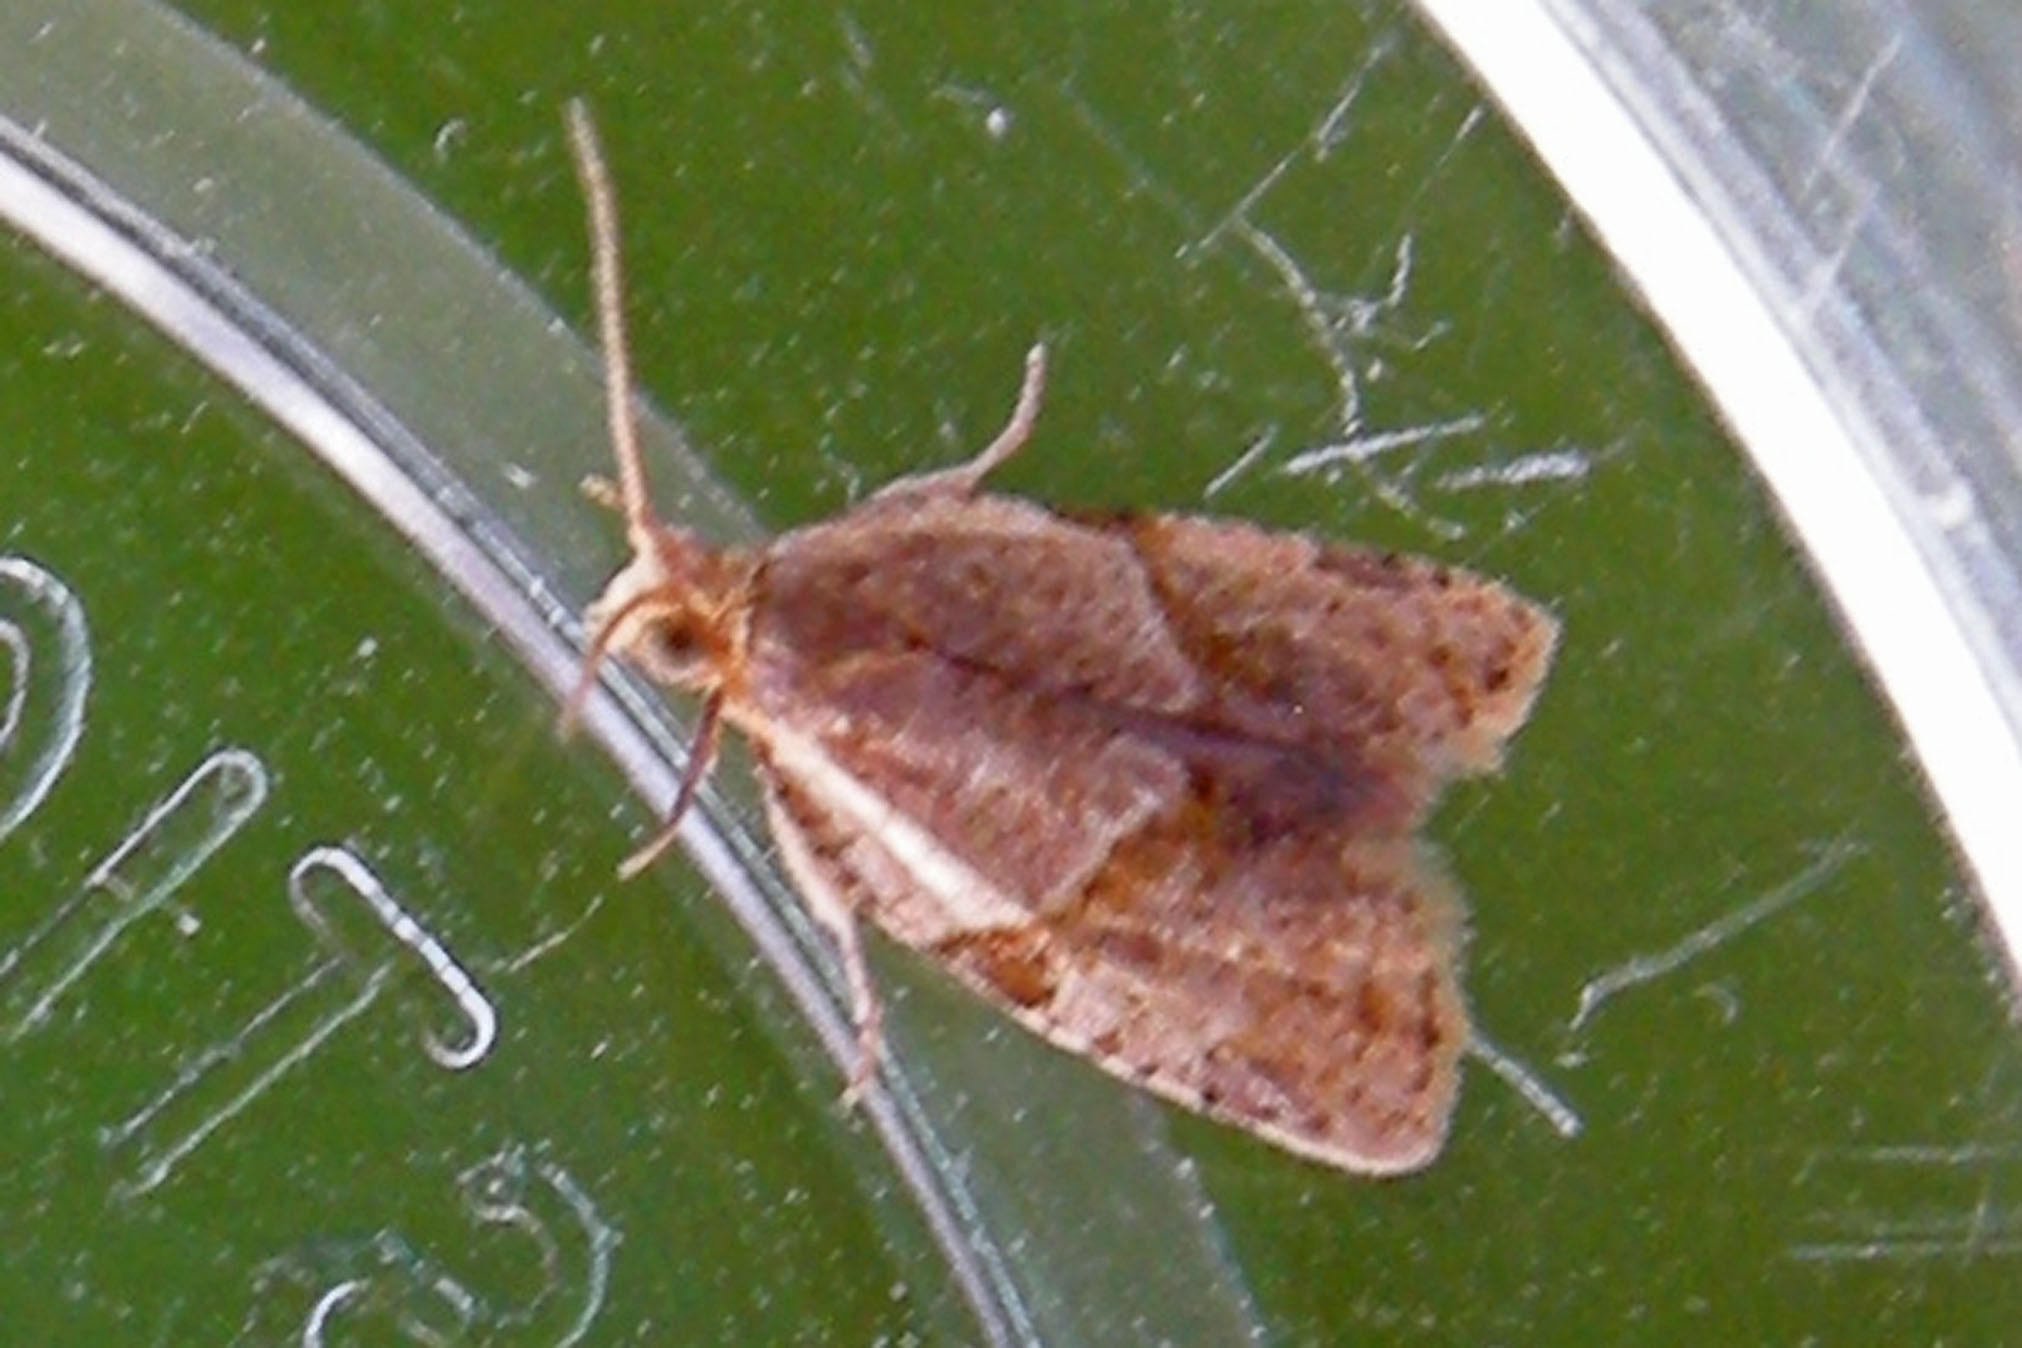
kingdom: Animalia
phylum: Arthropoda
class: Insecta
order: Lepidoptera
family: Tortricidae
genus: Clepsis
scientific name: Clepsis peritana
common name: Garden tortrix
